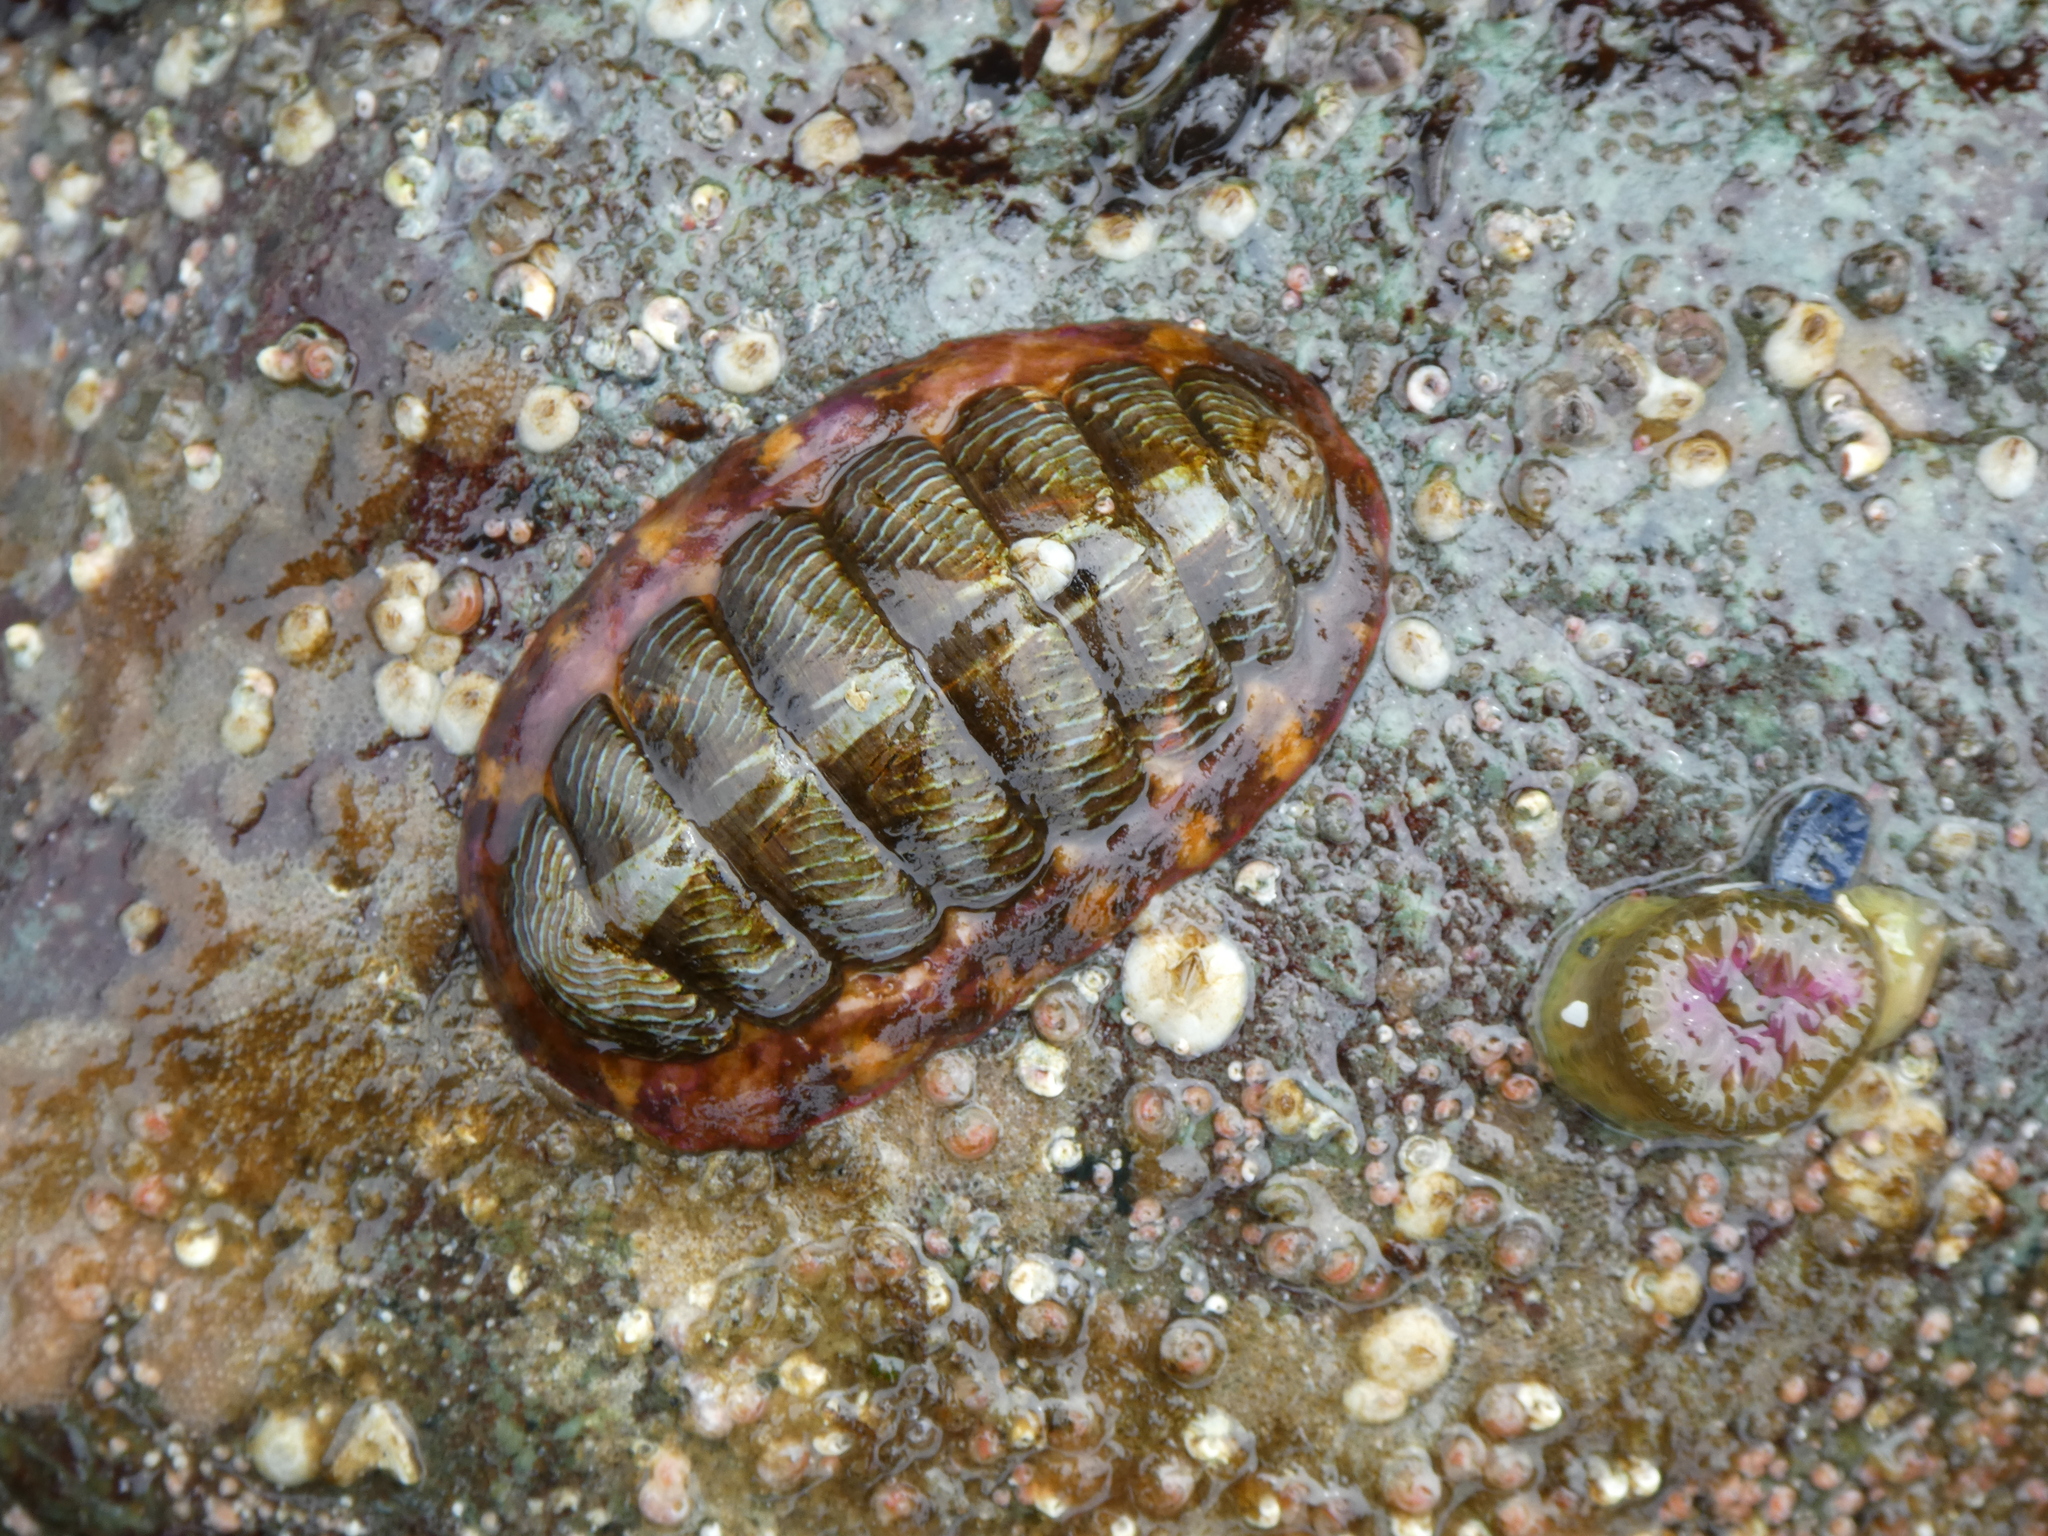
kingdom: Animalia
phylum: Mollusca
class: Polyplacophora
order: Chitonida
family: Tonicellidae
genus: Tonicella
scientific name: Tonicella lineata
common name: Lined chiton
